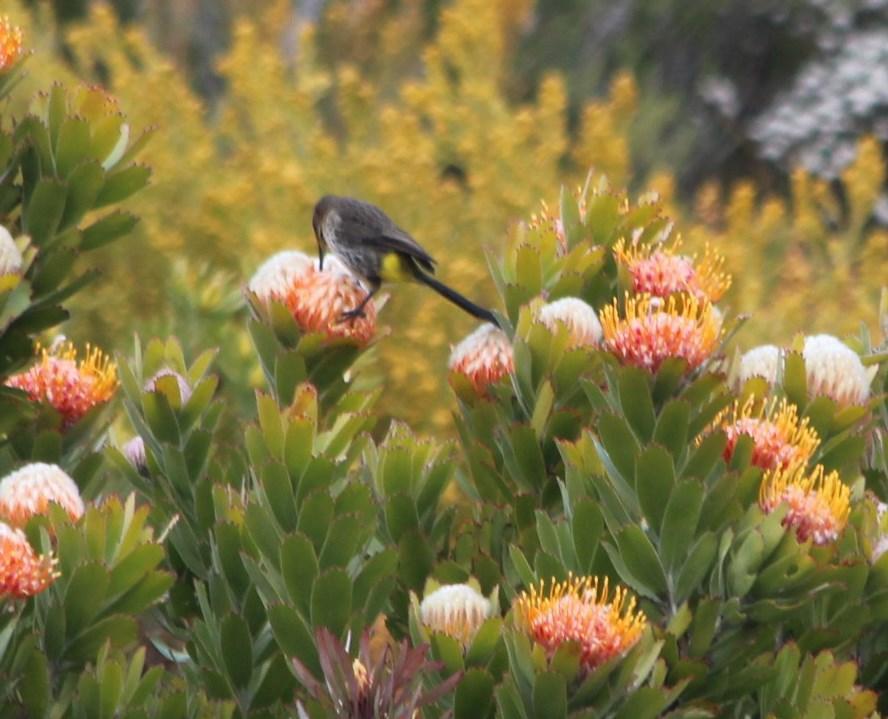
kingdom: Plantae
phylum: Tracheophyta
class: Magnoliopsida
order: Proteales
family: Proteaceae
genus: Leucospermum
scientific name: Leucospermum pluridens
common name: Robinson pincushion
